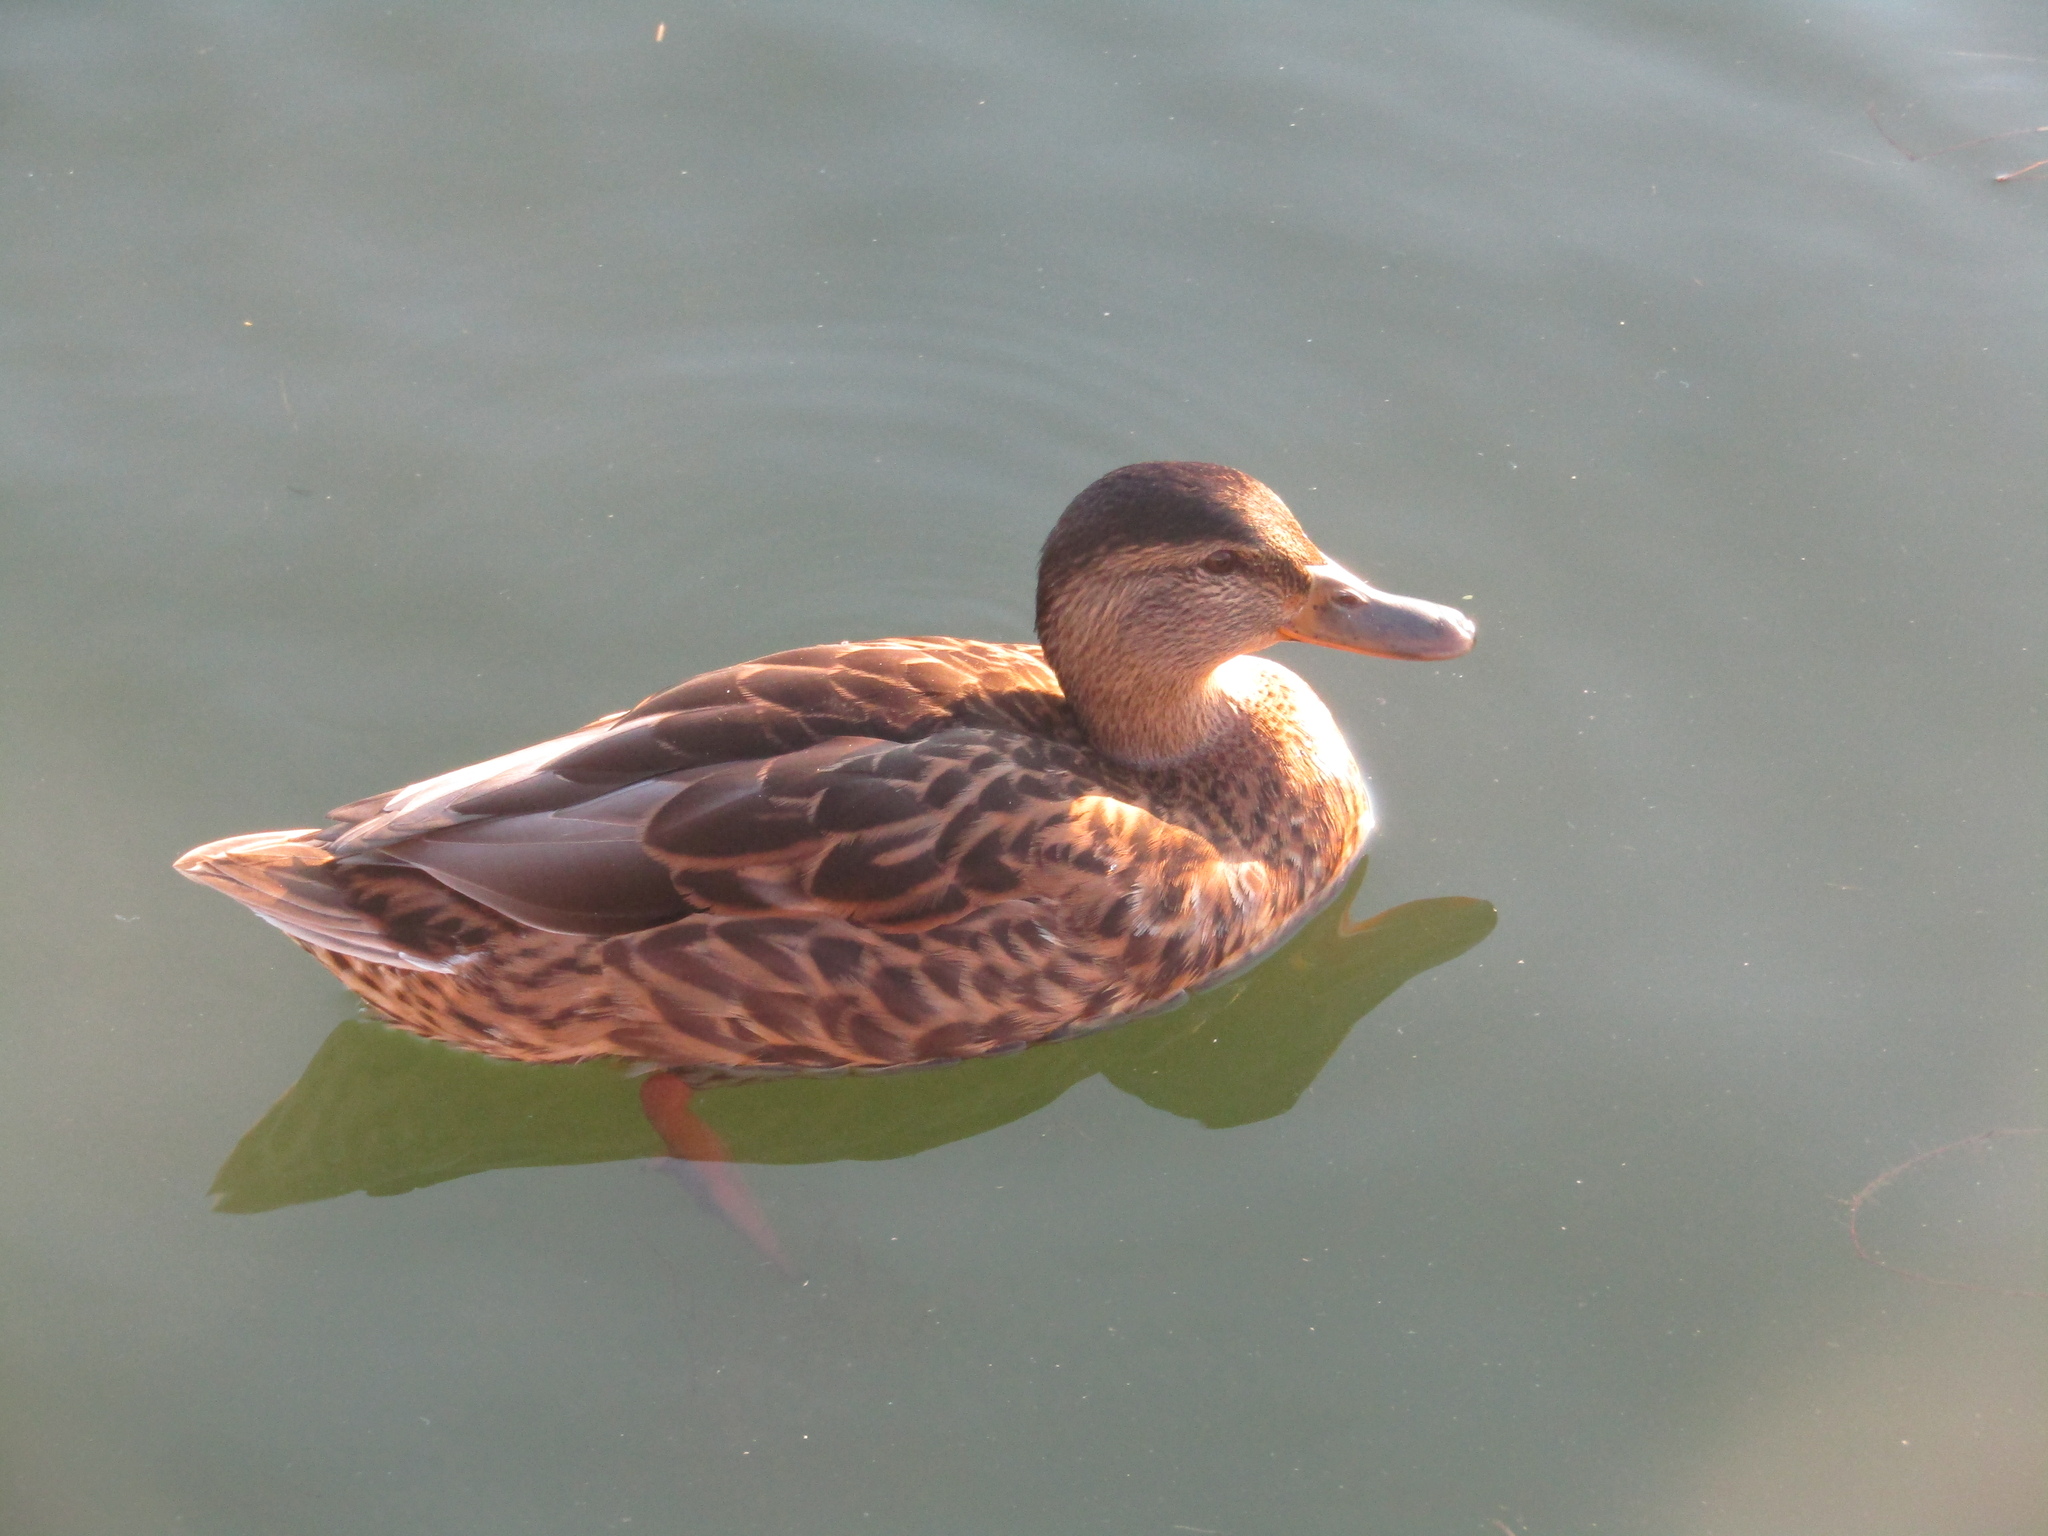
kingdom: Animalia
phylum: Chordata
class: Aves
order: Anseriformes
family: Anatidae
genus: Anas
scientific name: Anas platyrhynchos
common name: Mallard
